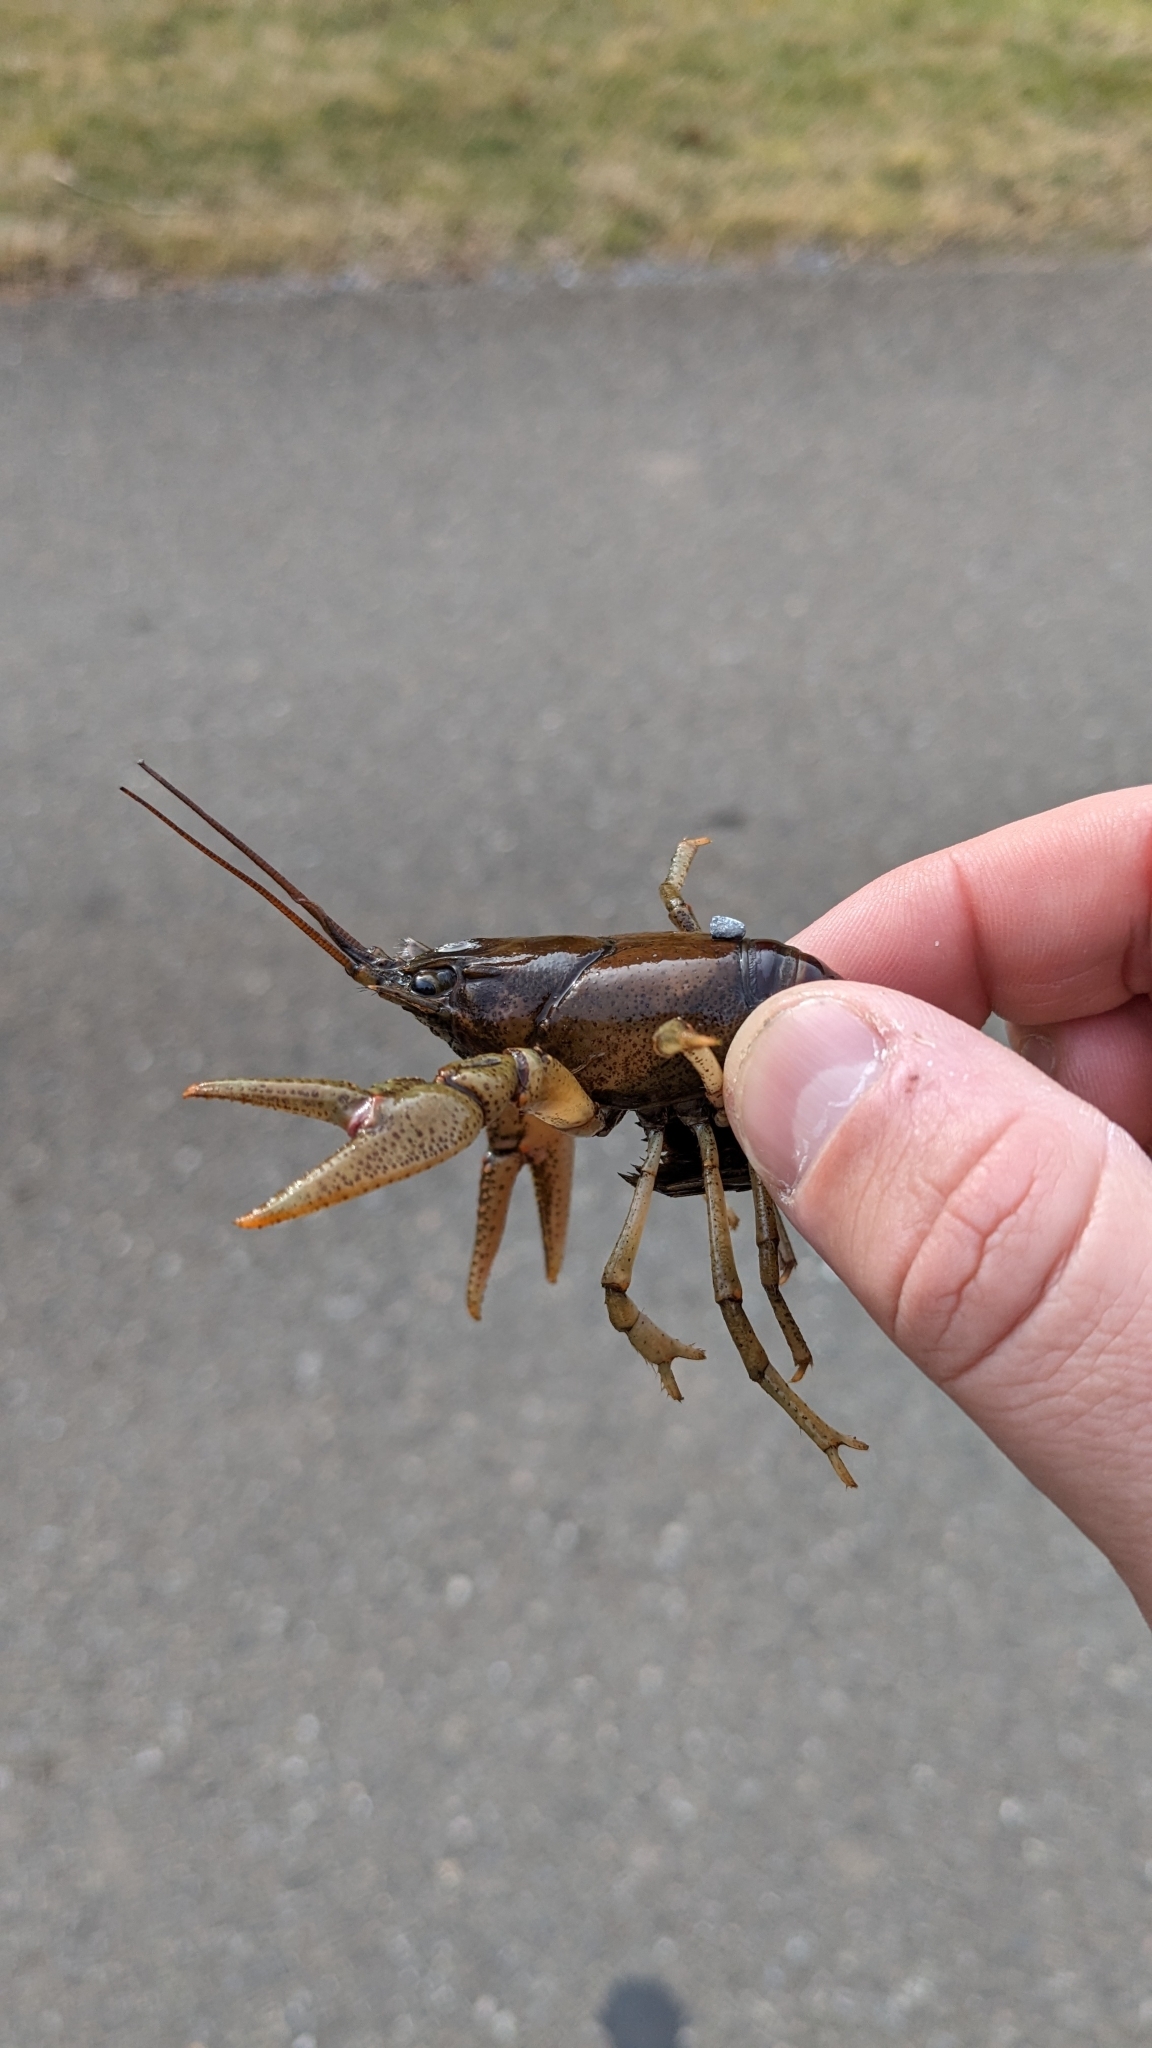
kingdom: Animalia
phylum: Arthropoda
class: Malacostraca
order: Decapoda
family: Cambaridae
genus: Faxonius
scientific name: Faxonius obscurus
